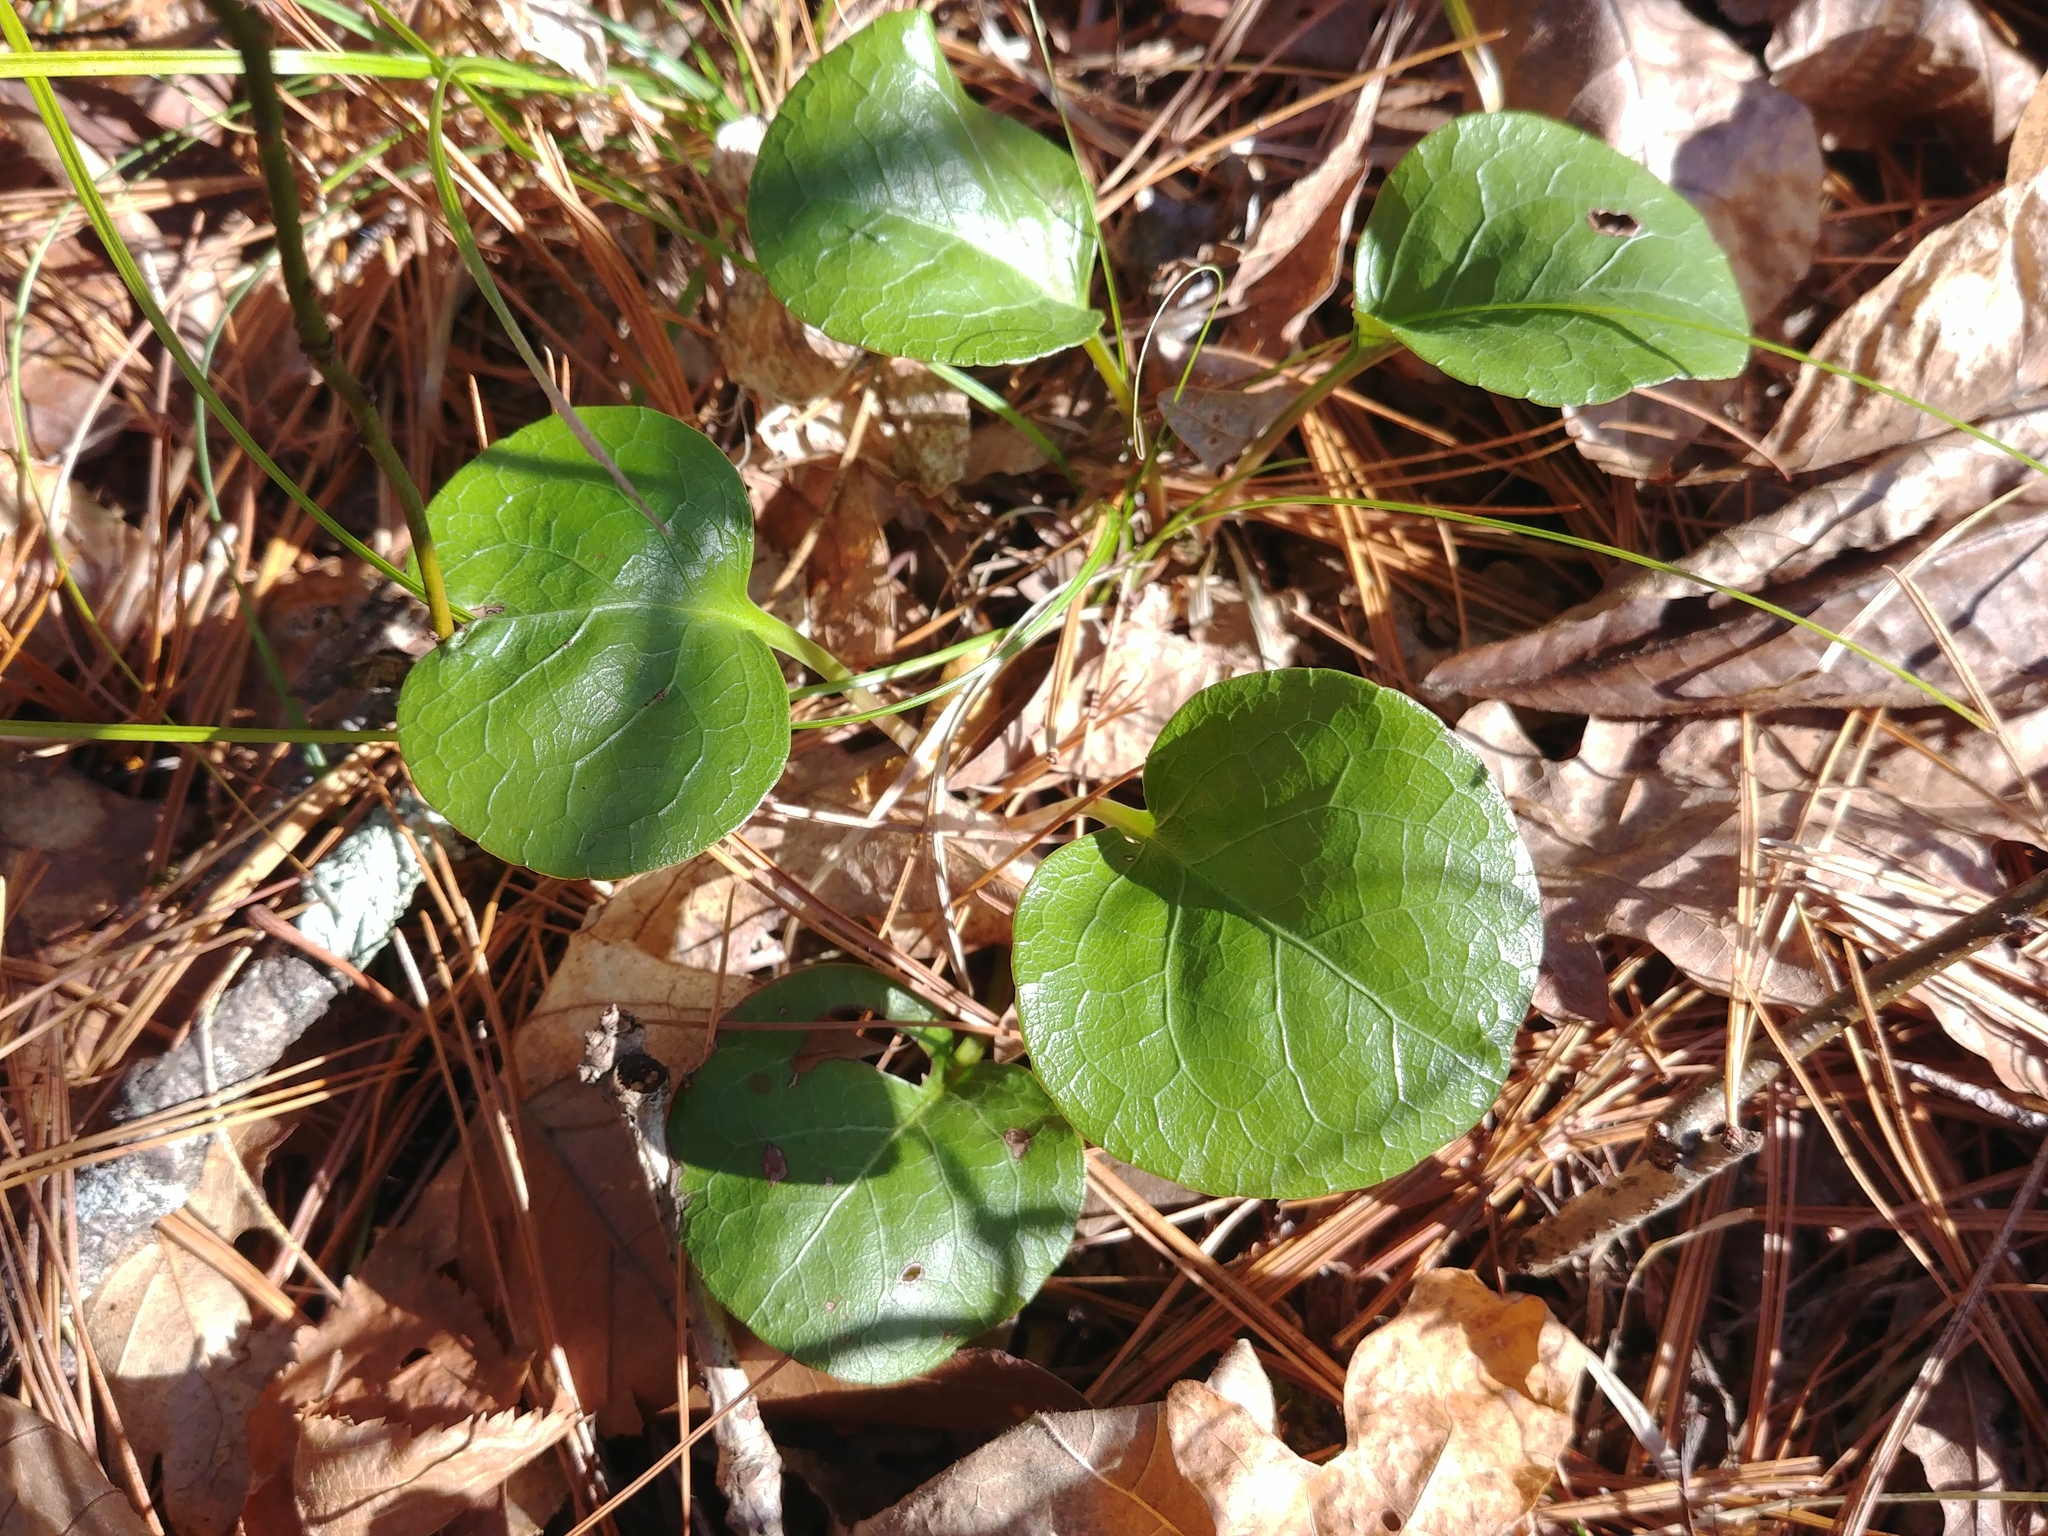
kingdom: Plantae
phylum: Tracheophyta
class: Magnoliopsida
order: Ericales
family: Ericaceae
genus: Pyrola
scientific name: Pyrola americana
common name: American wintergreen
